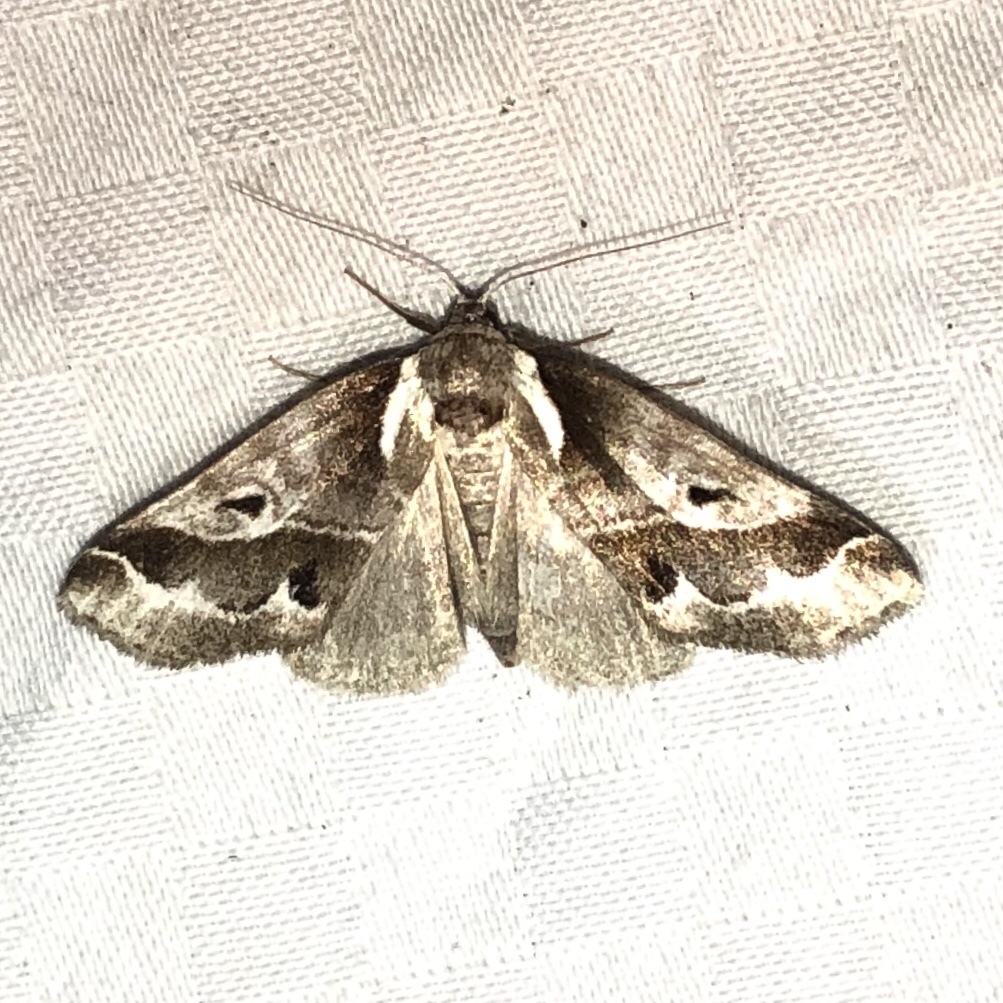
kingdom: Animalia
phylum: Arthropoda
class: Insecta
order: Lepidoptera
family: Nolidae
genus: Baileya
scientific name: Baileya doubledayi
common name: Doubleday's baileya moth
